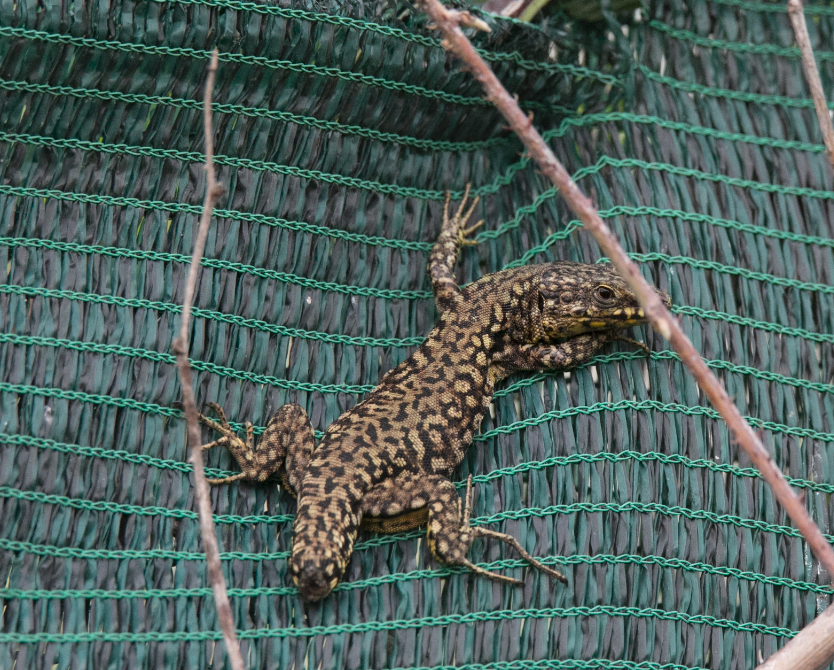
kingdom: Animalia
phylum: Chordata
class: Squamata
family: Lacertidae
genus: Podarcis
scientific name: Podarcis muralis
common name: Common wall lizard
